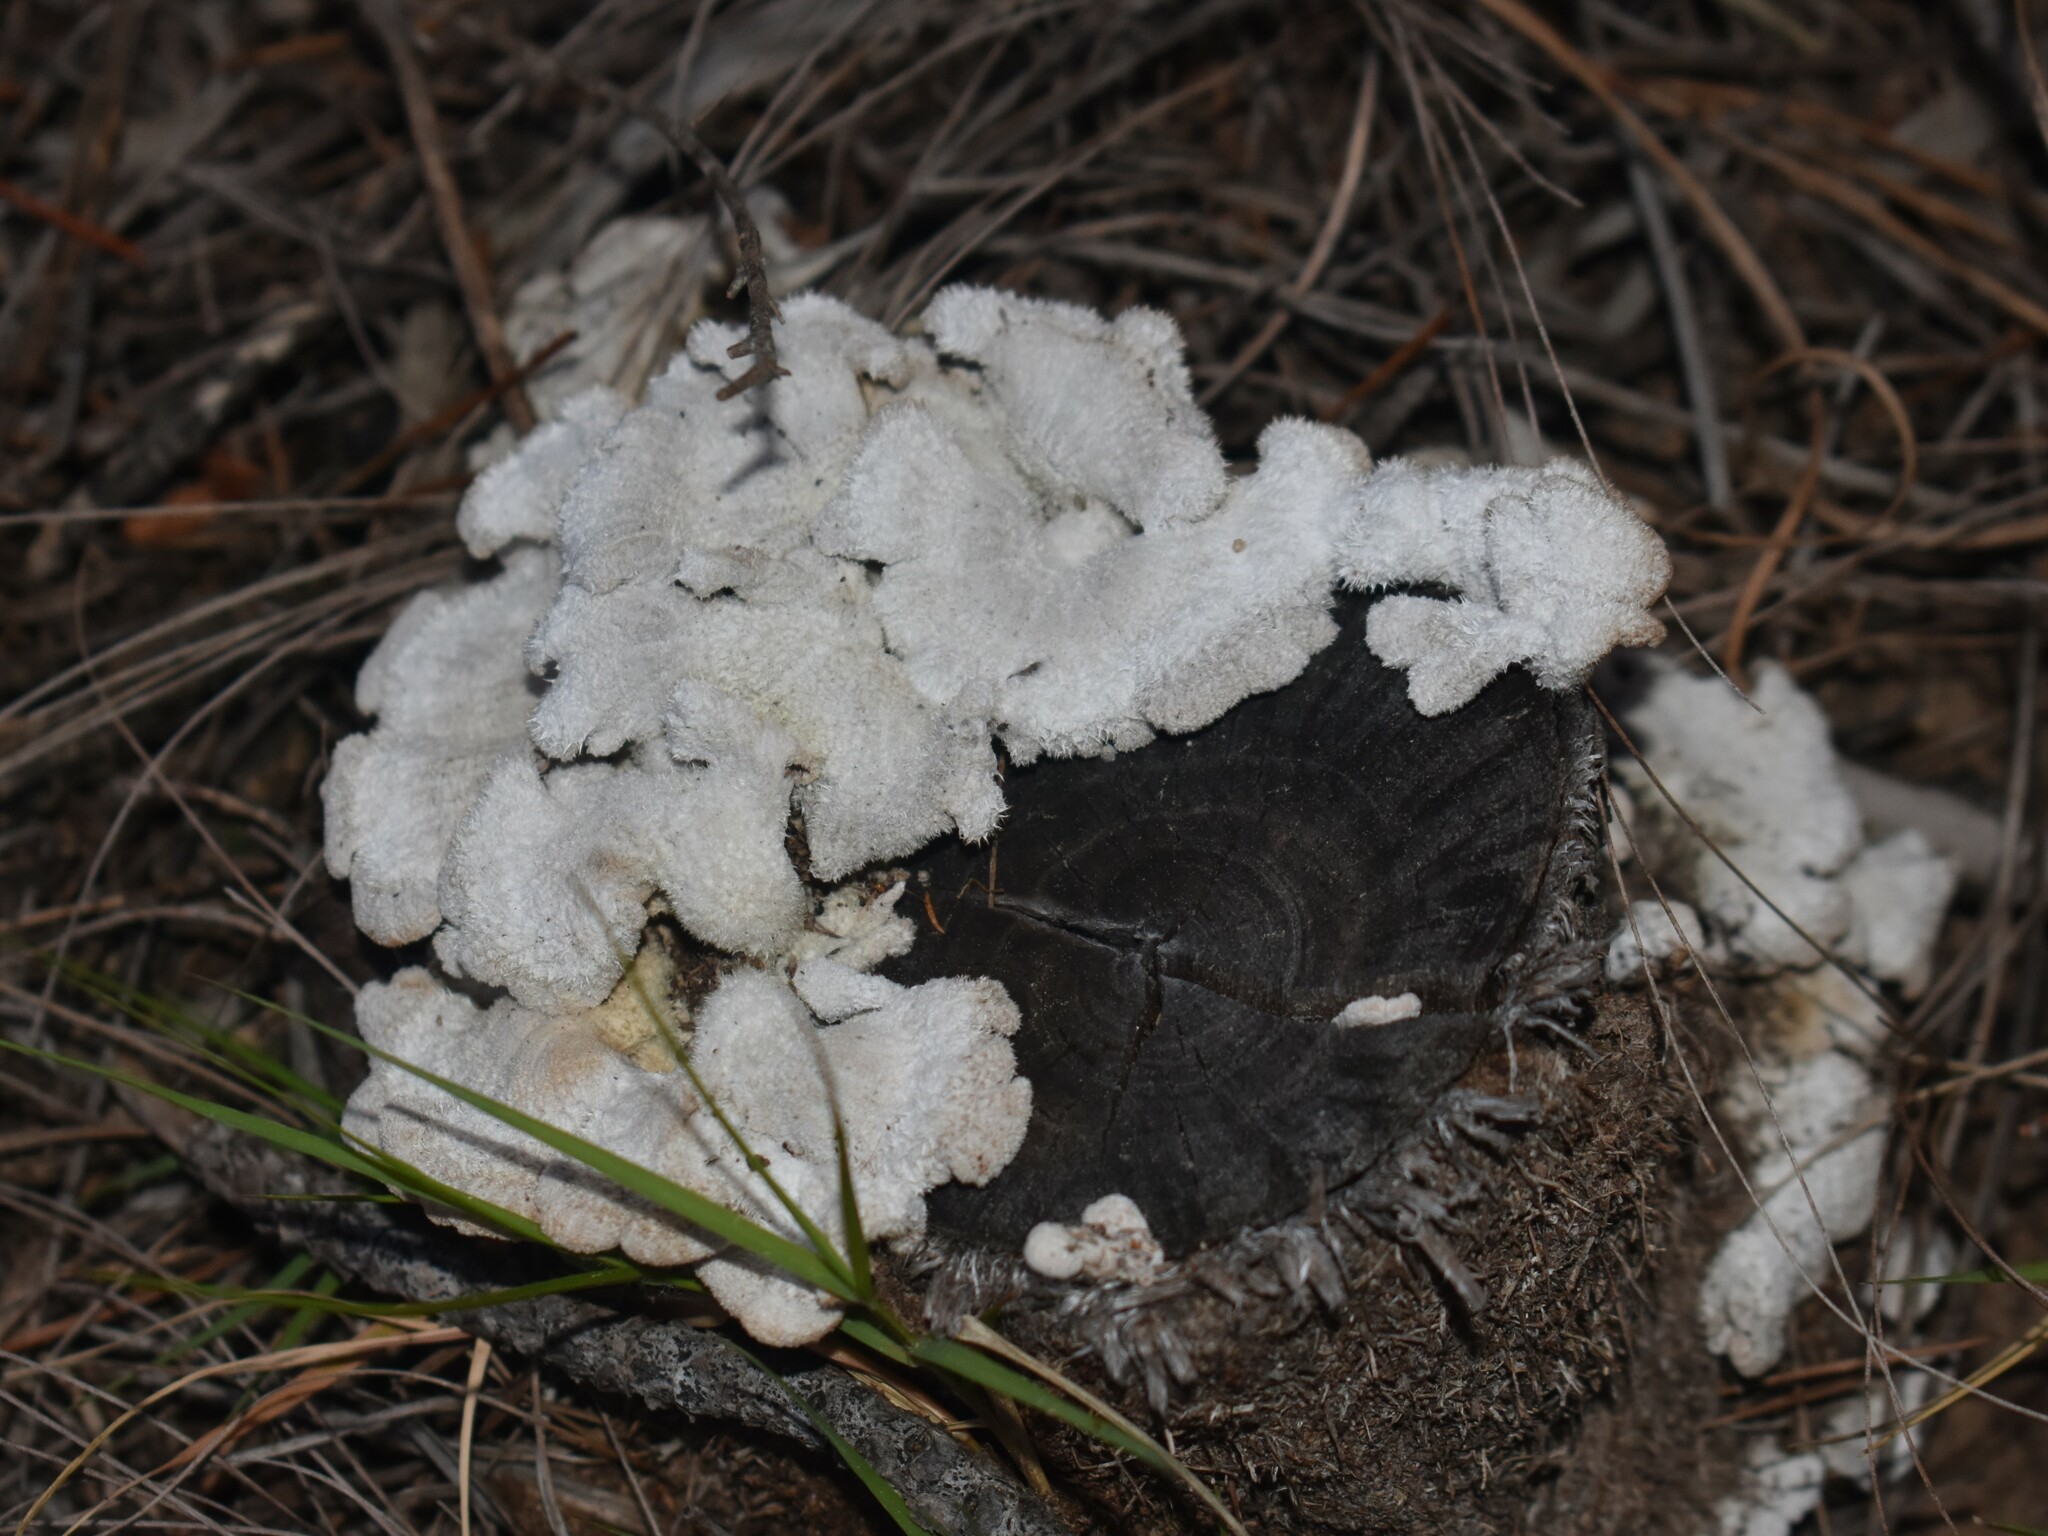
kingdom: Fungi
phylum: Basidiomycota
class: Agaricomycetes
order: Agaricales
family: Schizophyllaceae
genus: Schizophyllum
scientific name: Schizophyllum commune
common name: Common porecrust
